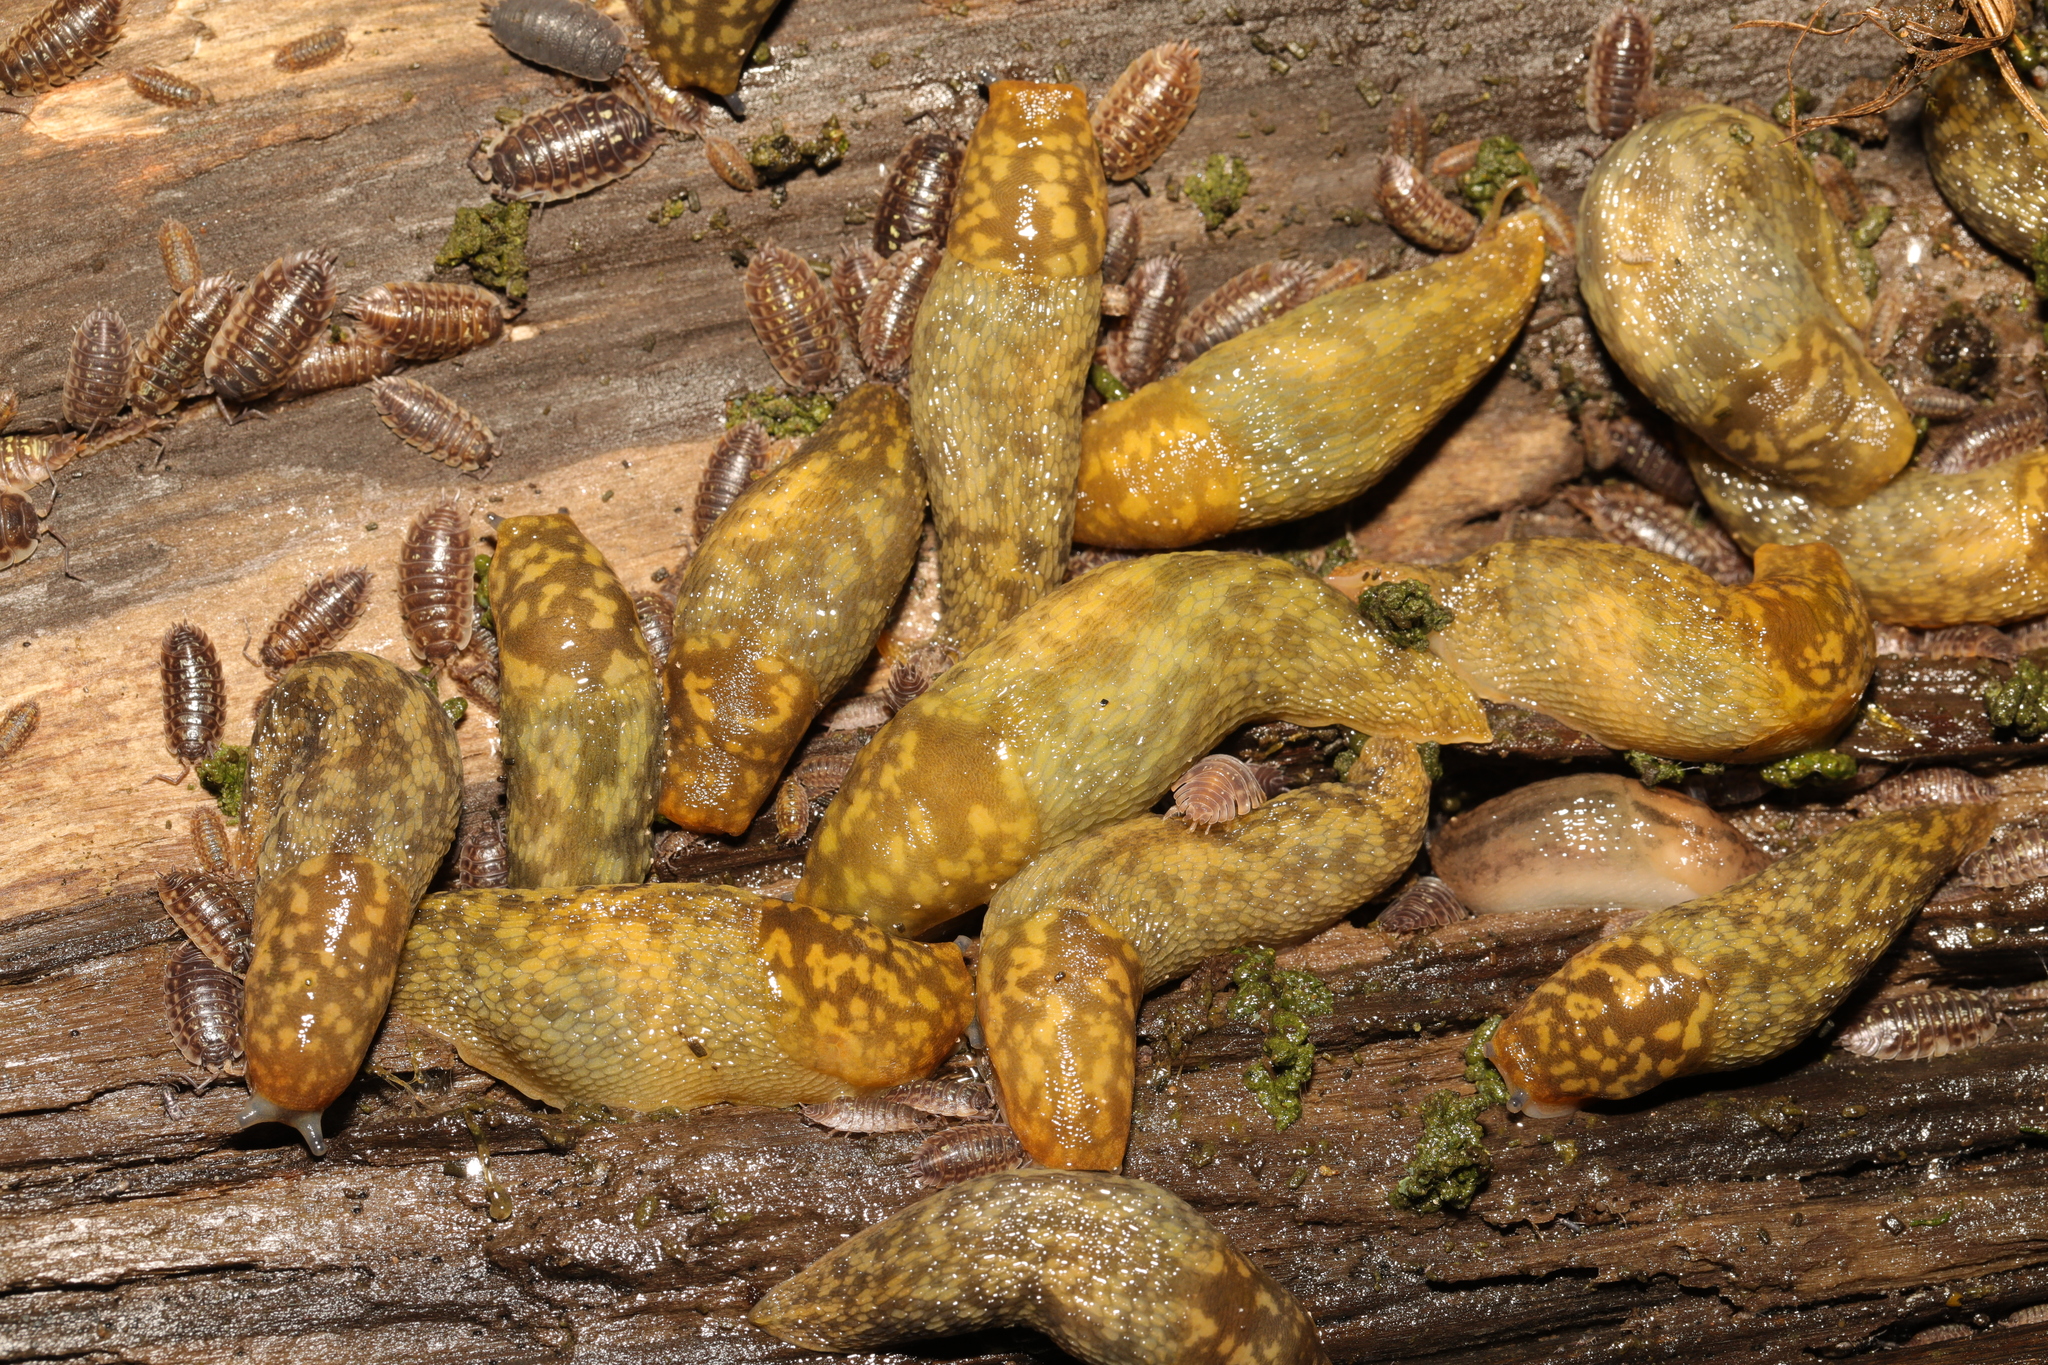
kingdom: Animalia
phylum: Mollusca
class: Gastropoda
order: Stylommatophora
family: Limacidae
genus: Limacus
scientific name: Limacus maculatus
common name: Irish yellow slug
